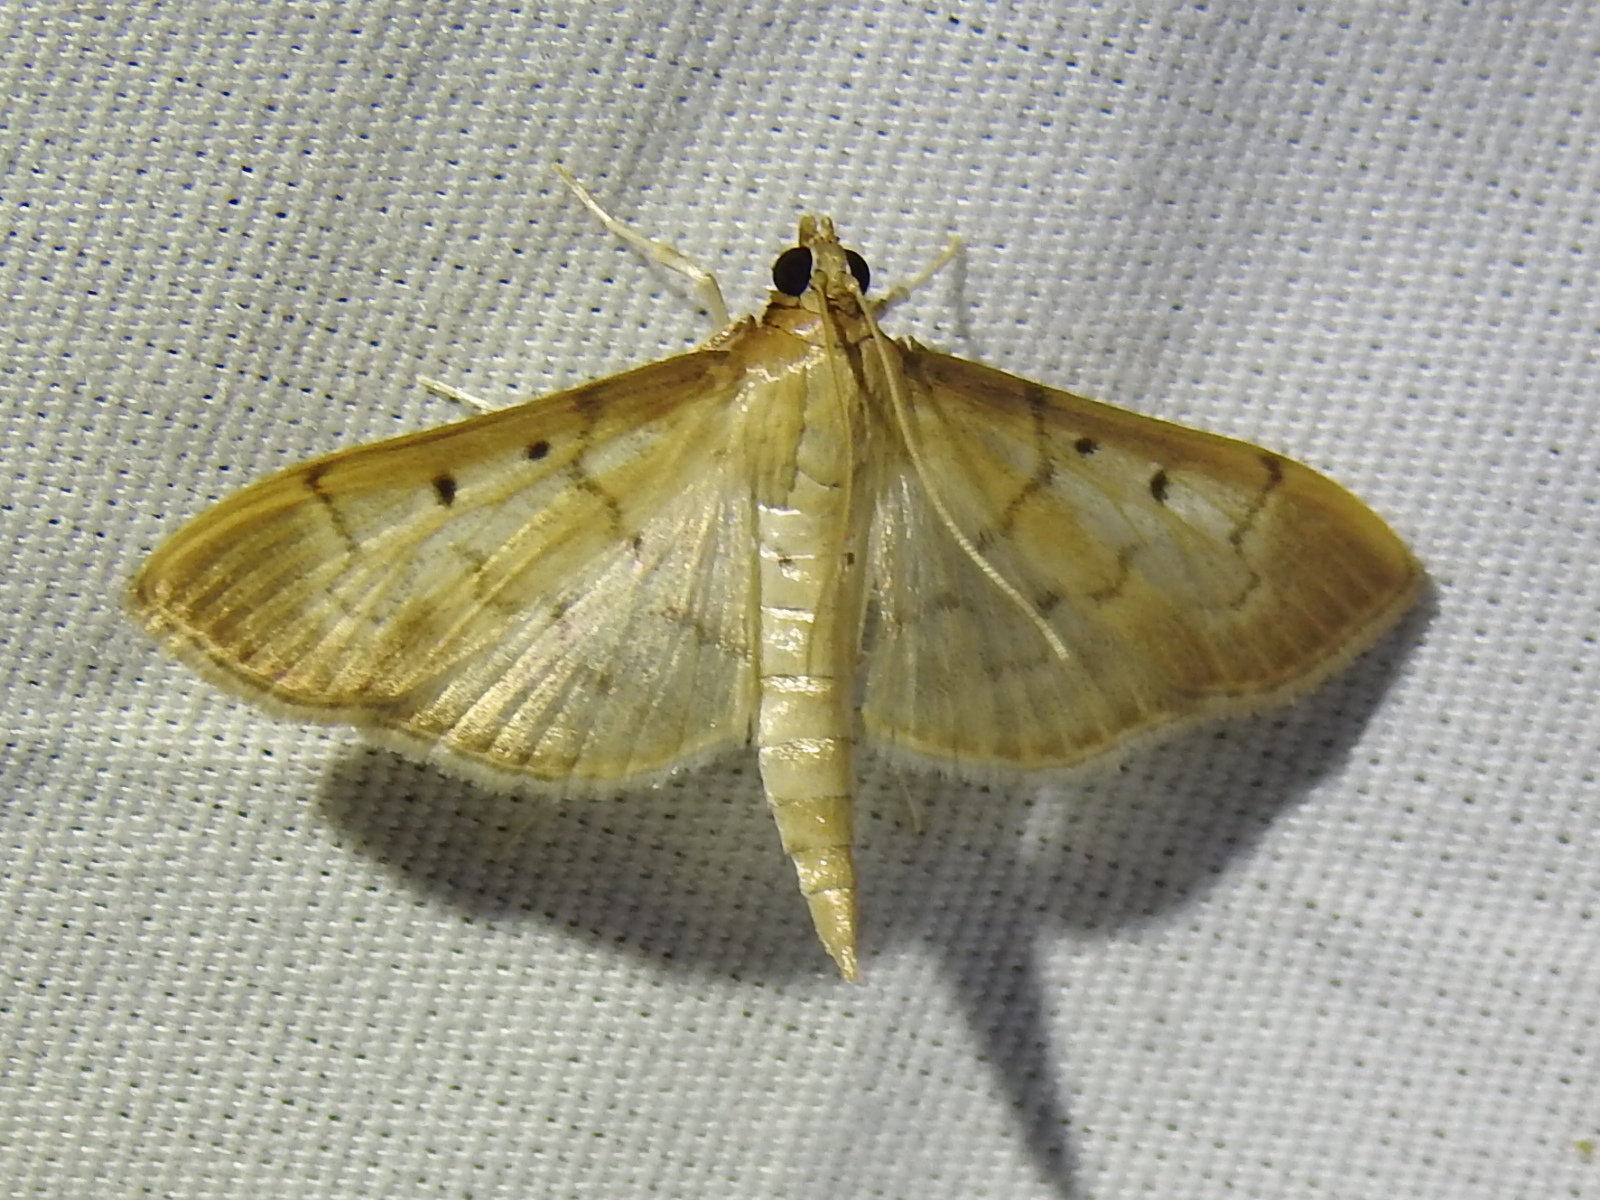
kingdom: Animalia
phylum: Arthropoda
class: Insecta
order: Lepidoptera
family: Crambidae
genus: Herpetogramma
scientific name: Herpetogramma bipunctalis
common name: Southern beet webworm
